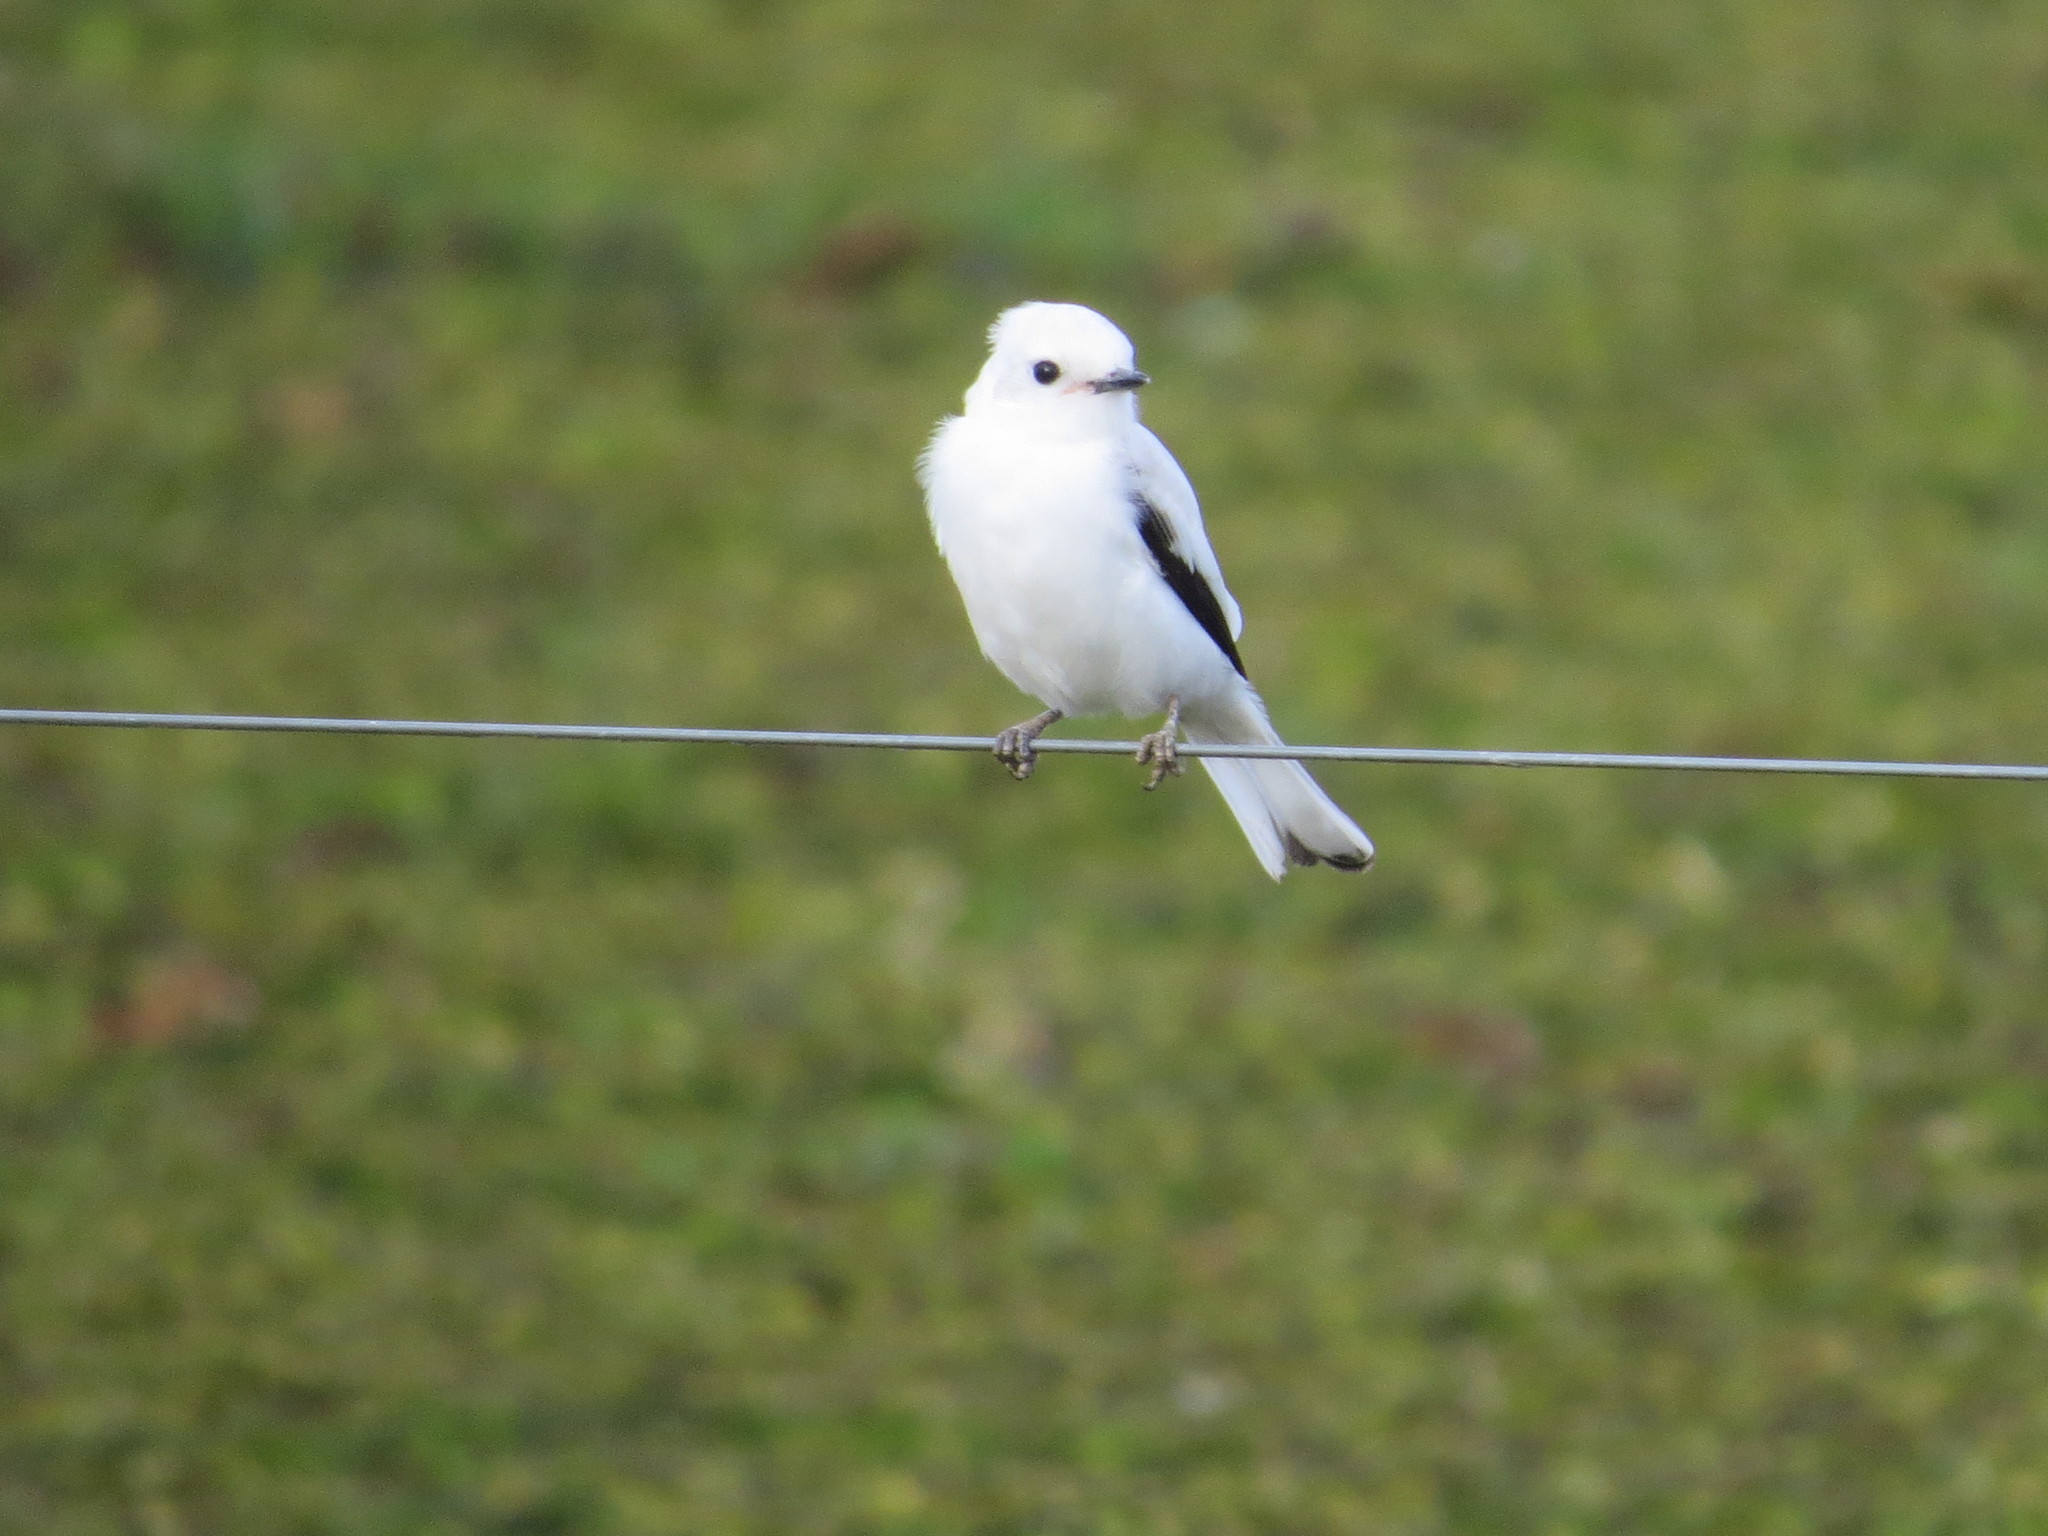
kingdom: Animalia
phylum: Chordata
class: Aves
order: Passeriformes
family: Tyrannidae
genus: Xolmis
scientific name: Xolmis irupero
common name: White monjita
